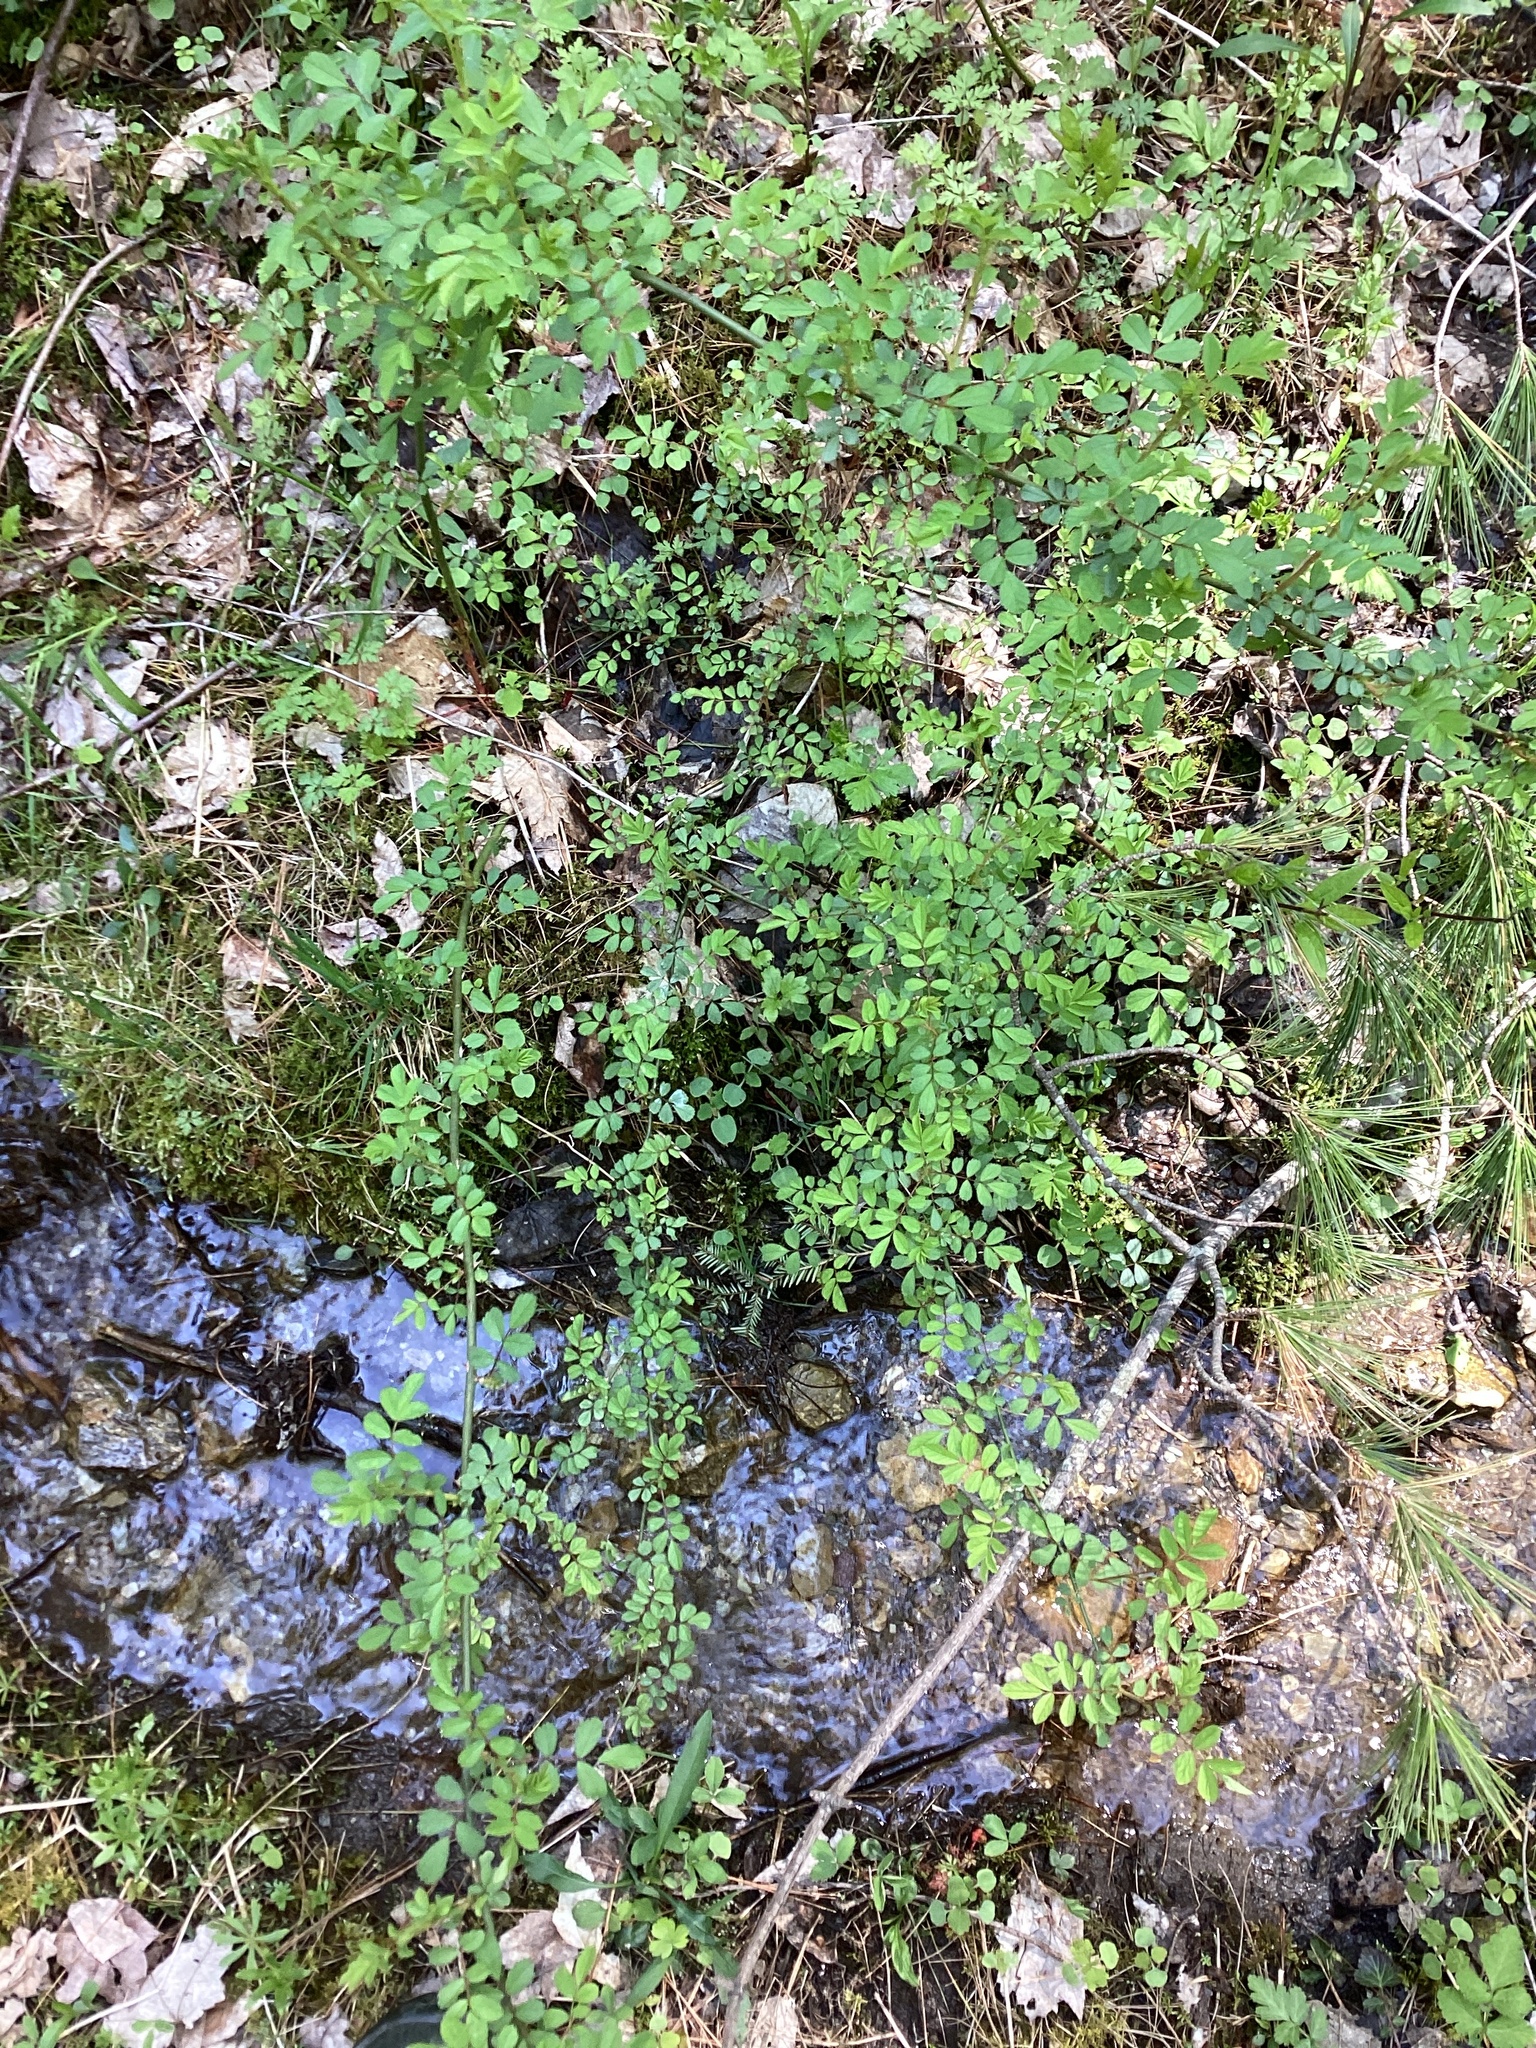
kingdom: Plantae
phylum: Tracheophyta
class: Magnoliopsida
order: Rosales
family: Rosaceae
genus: Rosa
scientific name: Rosa multiflora
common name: Multiflora rose
